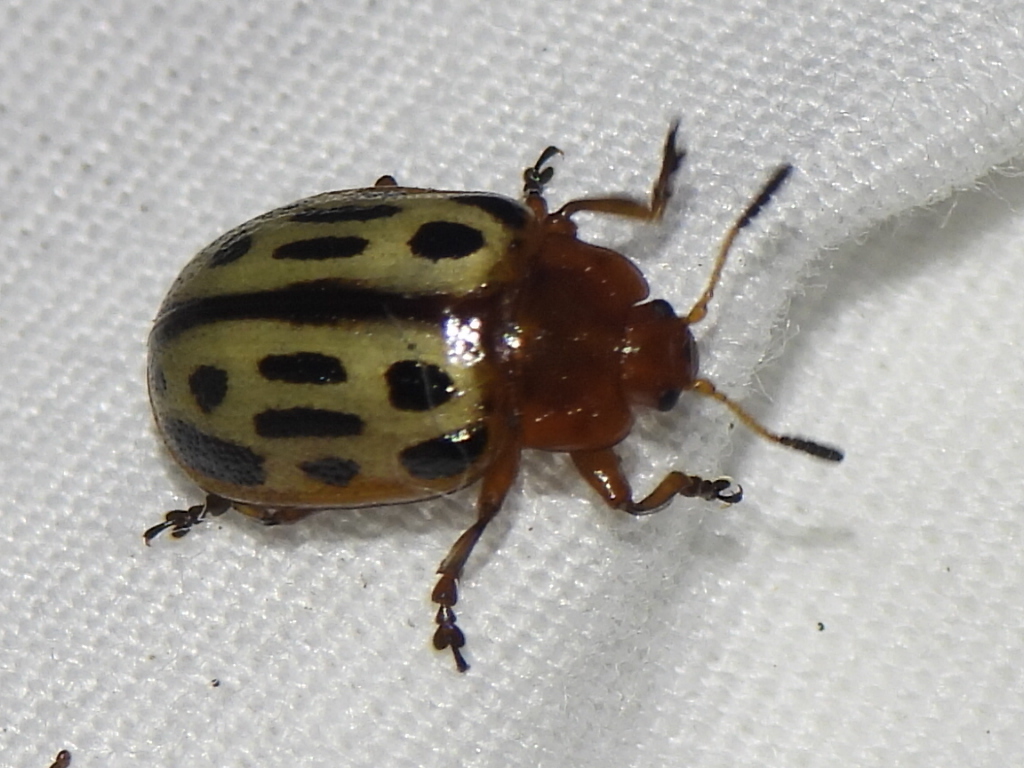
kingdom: Animalia
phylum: Arthropoda
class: Insecta
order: Coleoptera
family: Chrysomelidae
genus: Chrysomela
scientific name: Chrysomela texana
